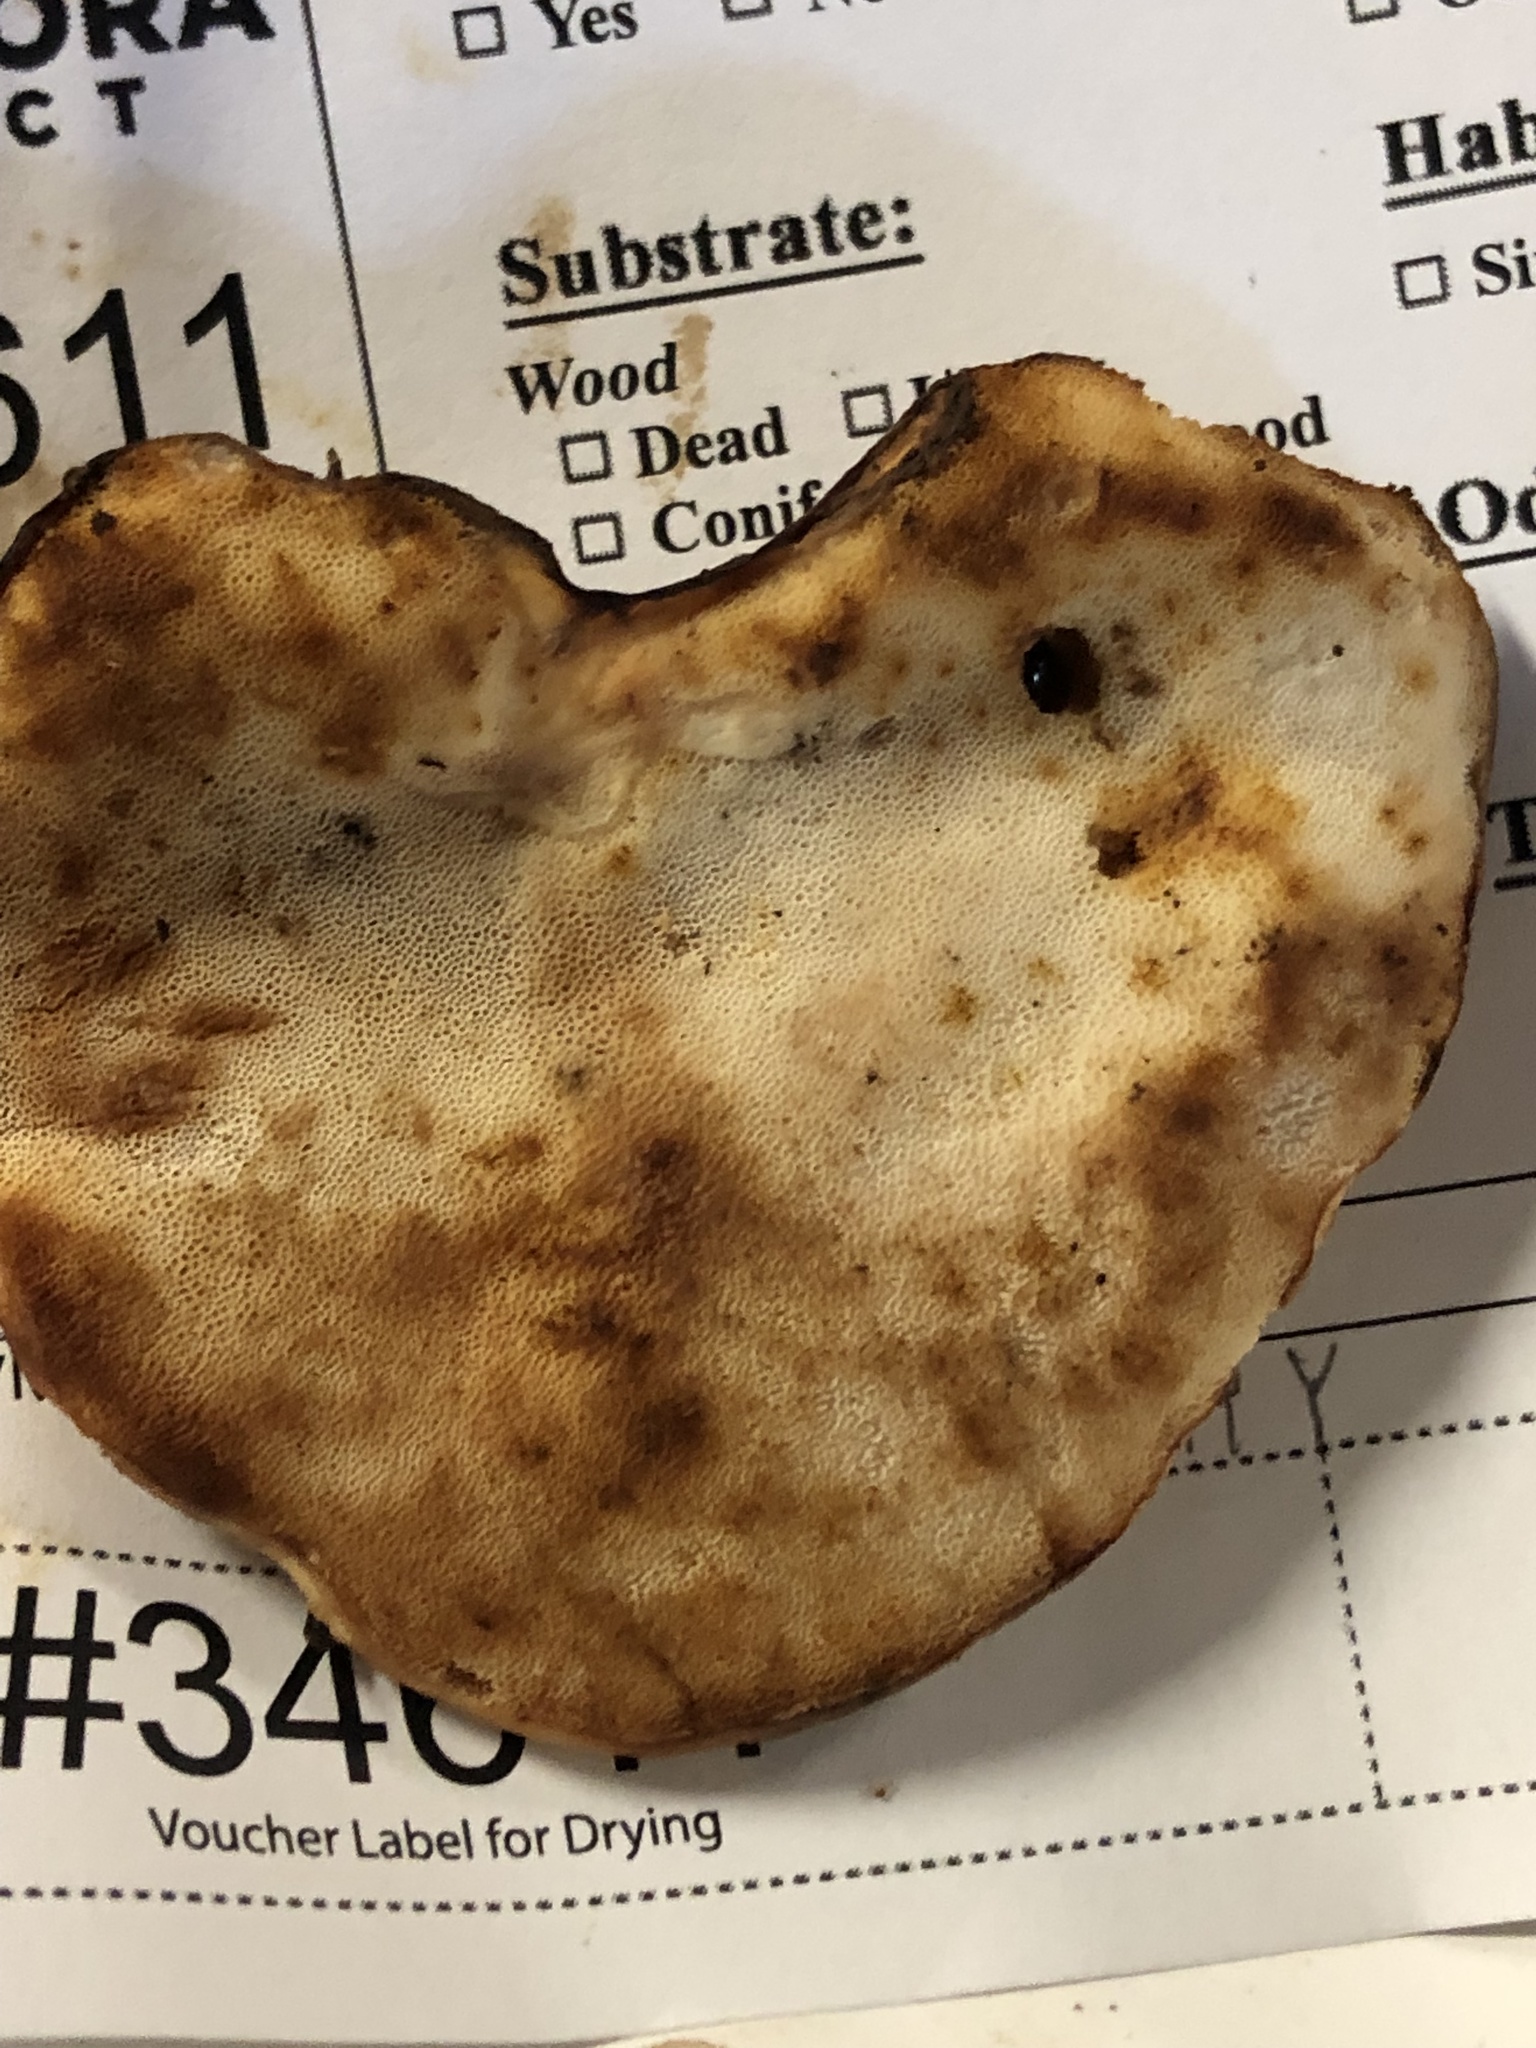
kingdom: Fungi
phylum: Basidiomycota
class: Agaricomycetes
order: Polyporales
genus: Fuscopostia
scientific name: Fuscopostia fragilis
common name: Brown-staining cheese polypore
